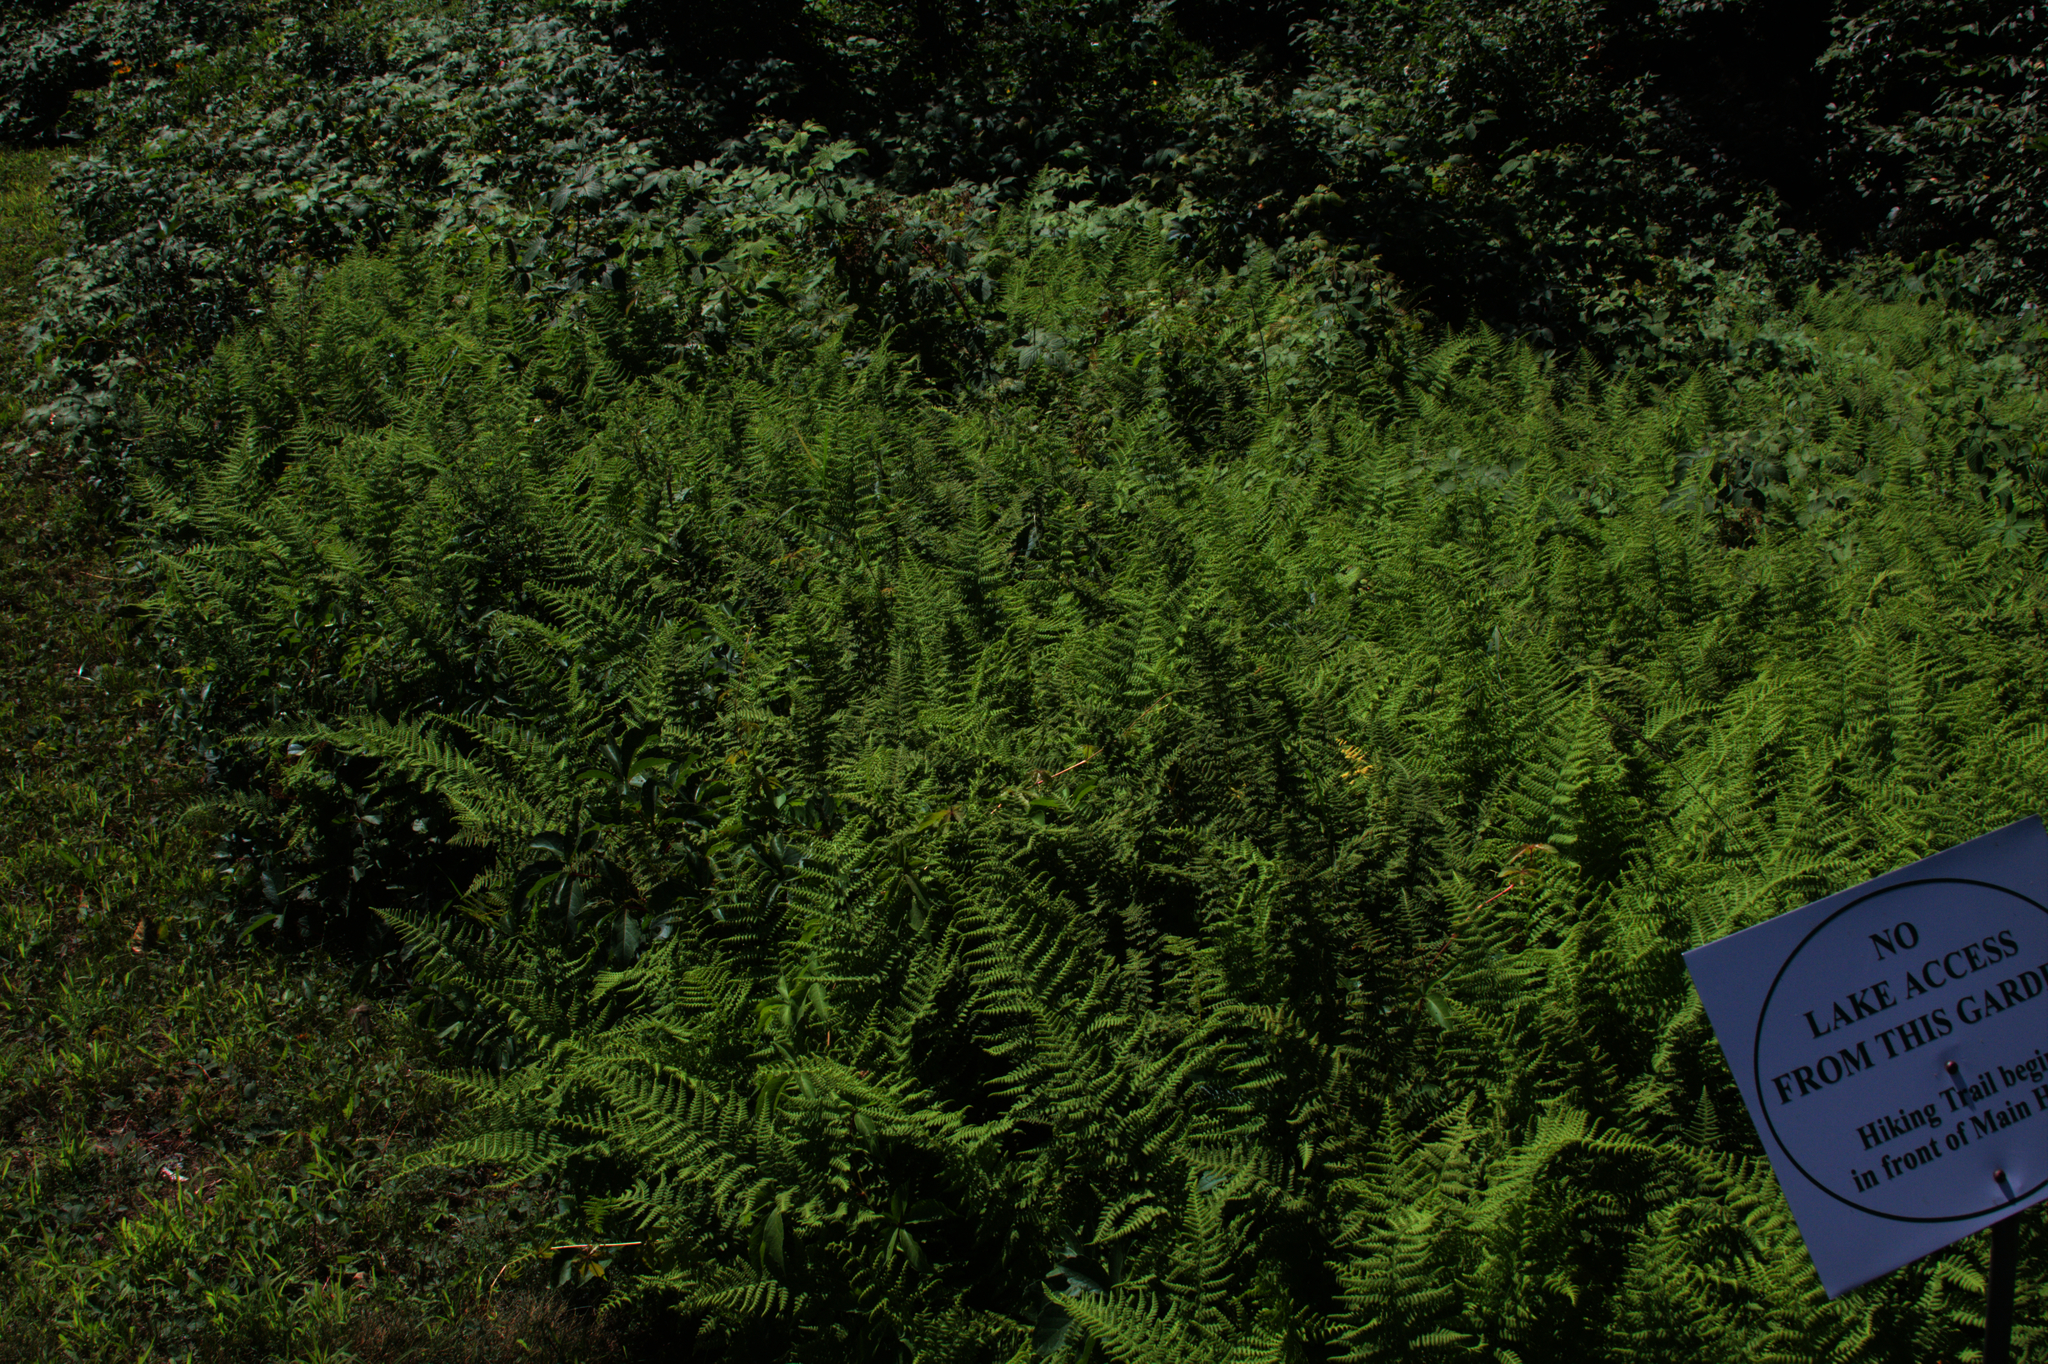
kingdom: Plantae
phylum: Tracheophyta
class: Polypodiopsida
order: Polypodiales
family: Dennstaedtiaceae
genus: Sitobolium
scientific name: Sitobolium punctilobum
